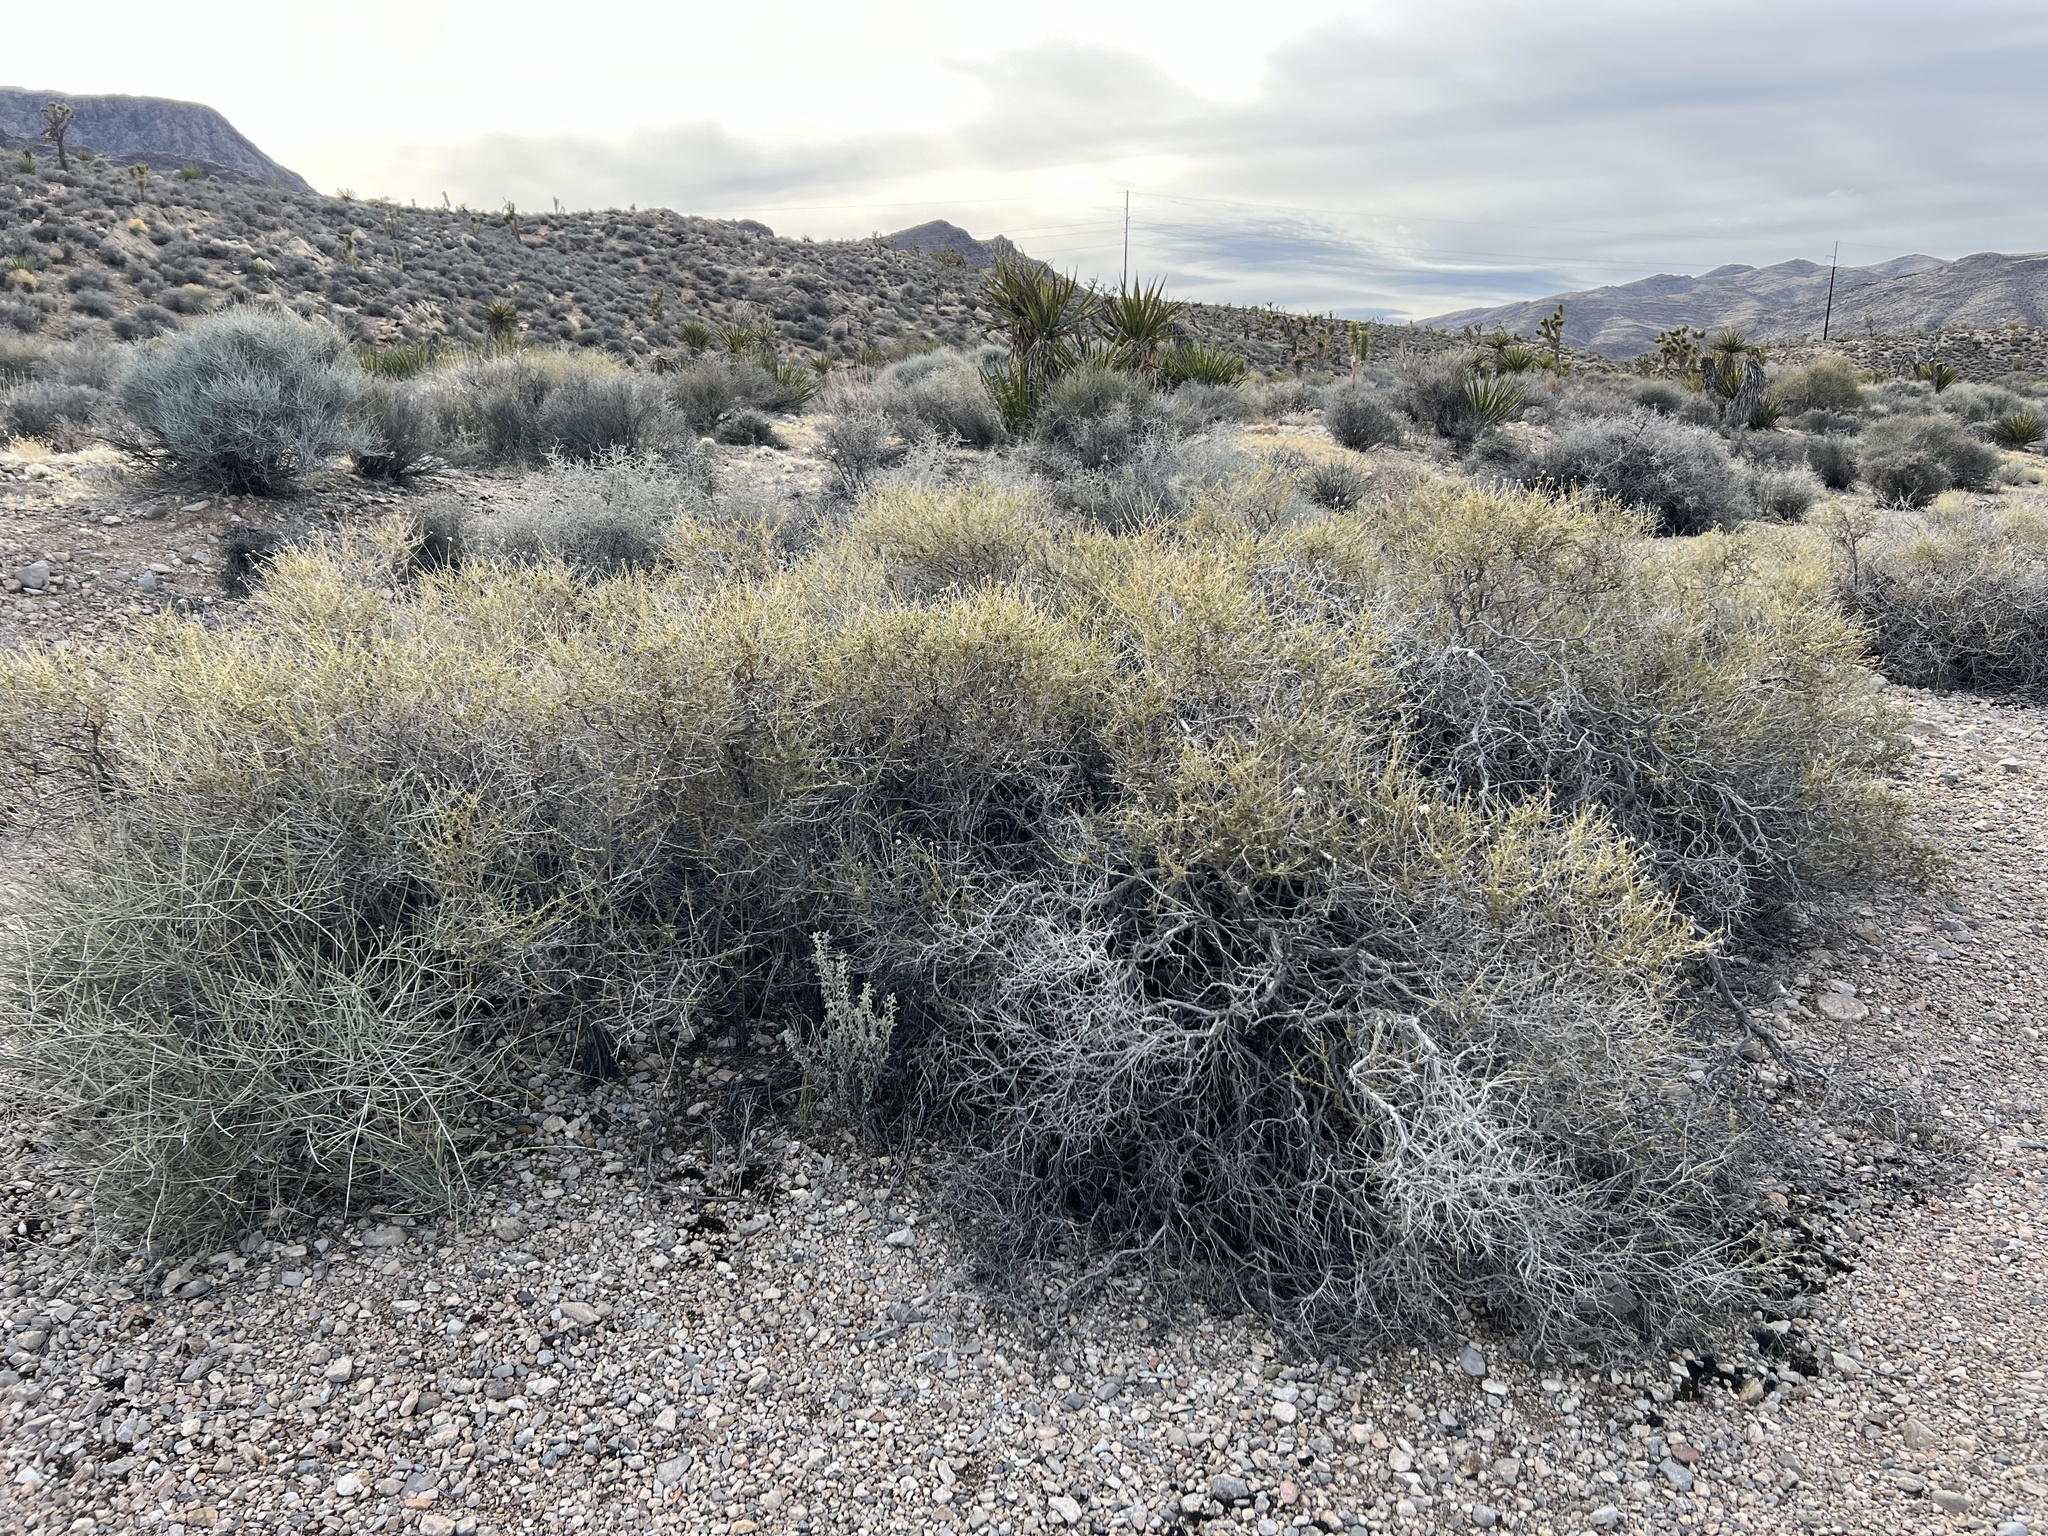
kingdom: Plantae
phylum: Tracheophyta
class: Magnoliopsida
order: Rosales
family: Rosaceae
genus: Fallugia
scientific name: Fallugia paradoxa
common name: Apache-plume
